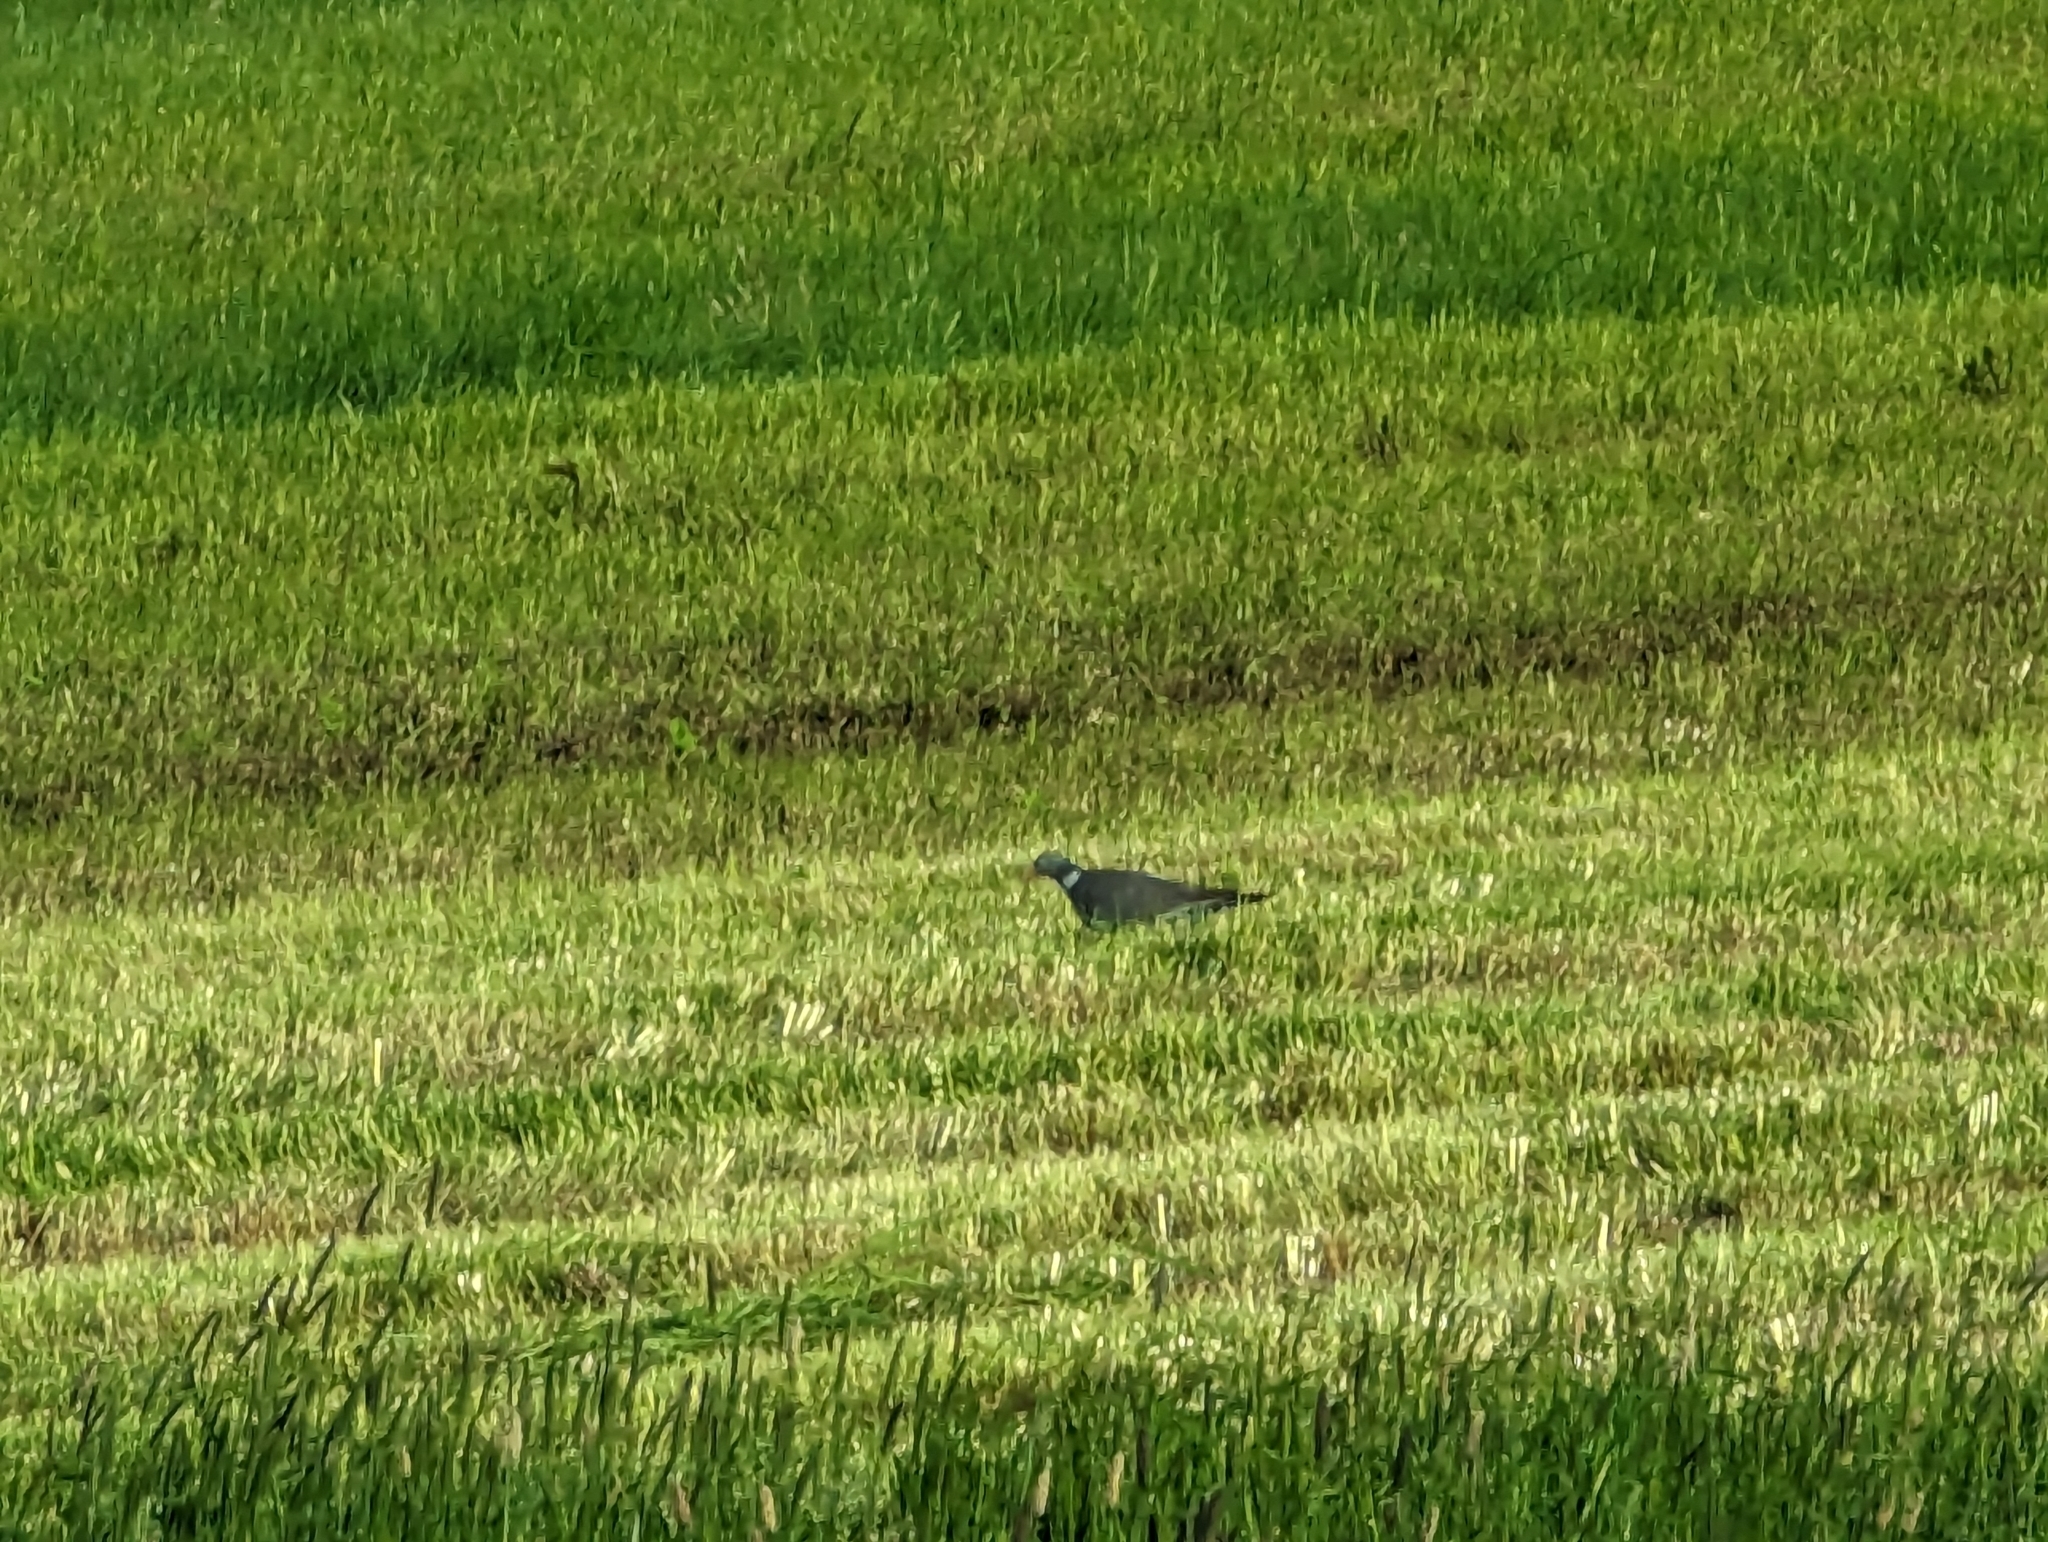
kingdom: Animalia
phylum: Chordata
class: Aves
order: Columbiformes
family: Columbidae
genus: Columba
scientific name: Columba palumbus
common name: Common wood pigeon
